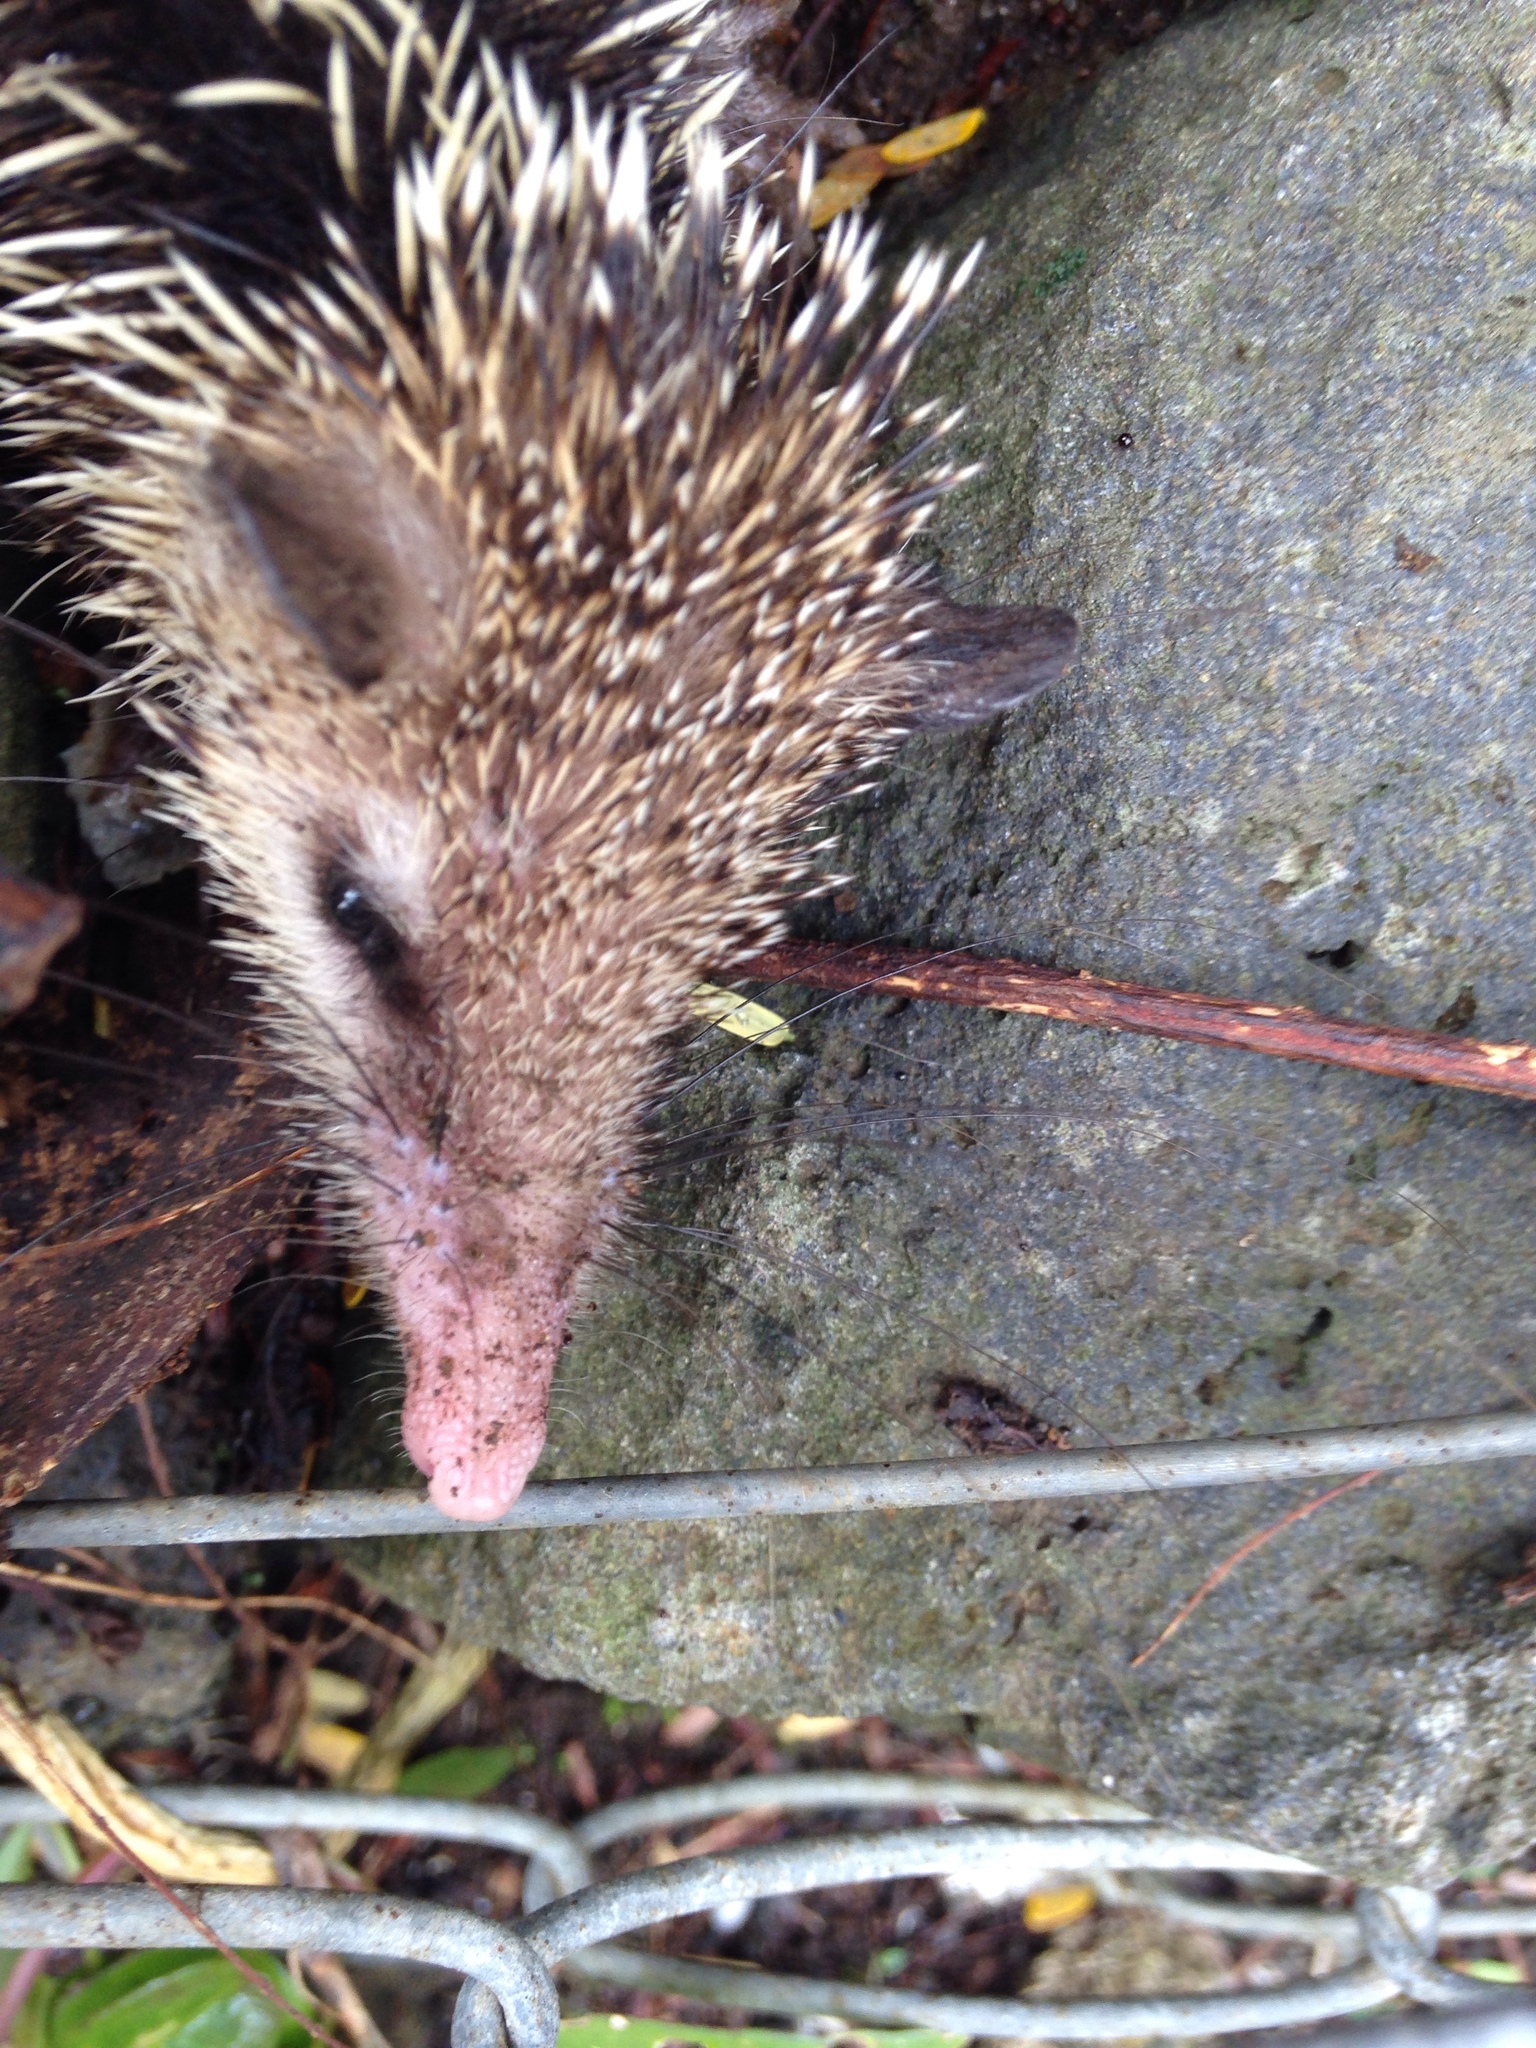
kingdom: Animalia
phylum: Chordata
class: Mammalia
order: Afrosoricida
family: Tenrecidae
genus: Tenrec
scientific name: Tenrec ecaudatus
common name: Common tenrec
